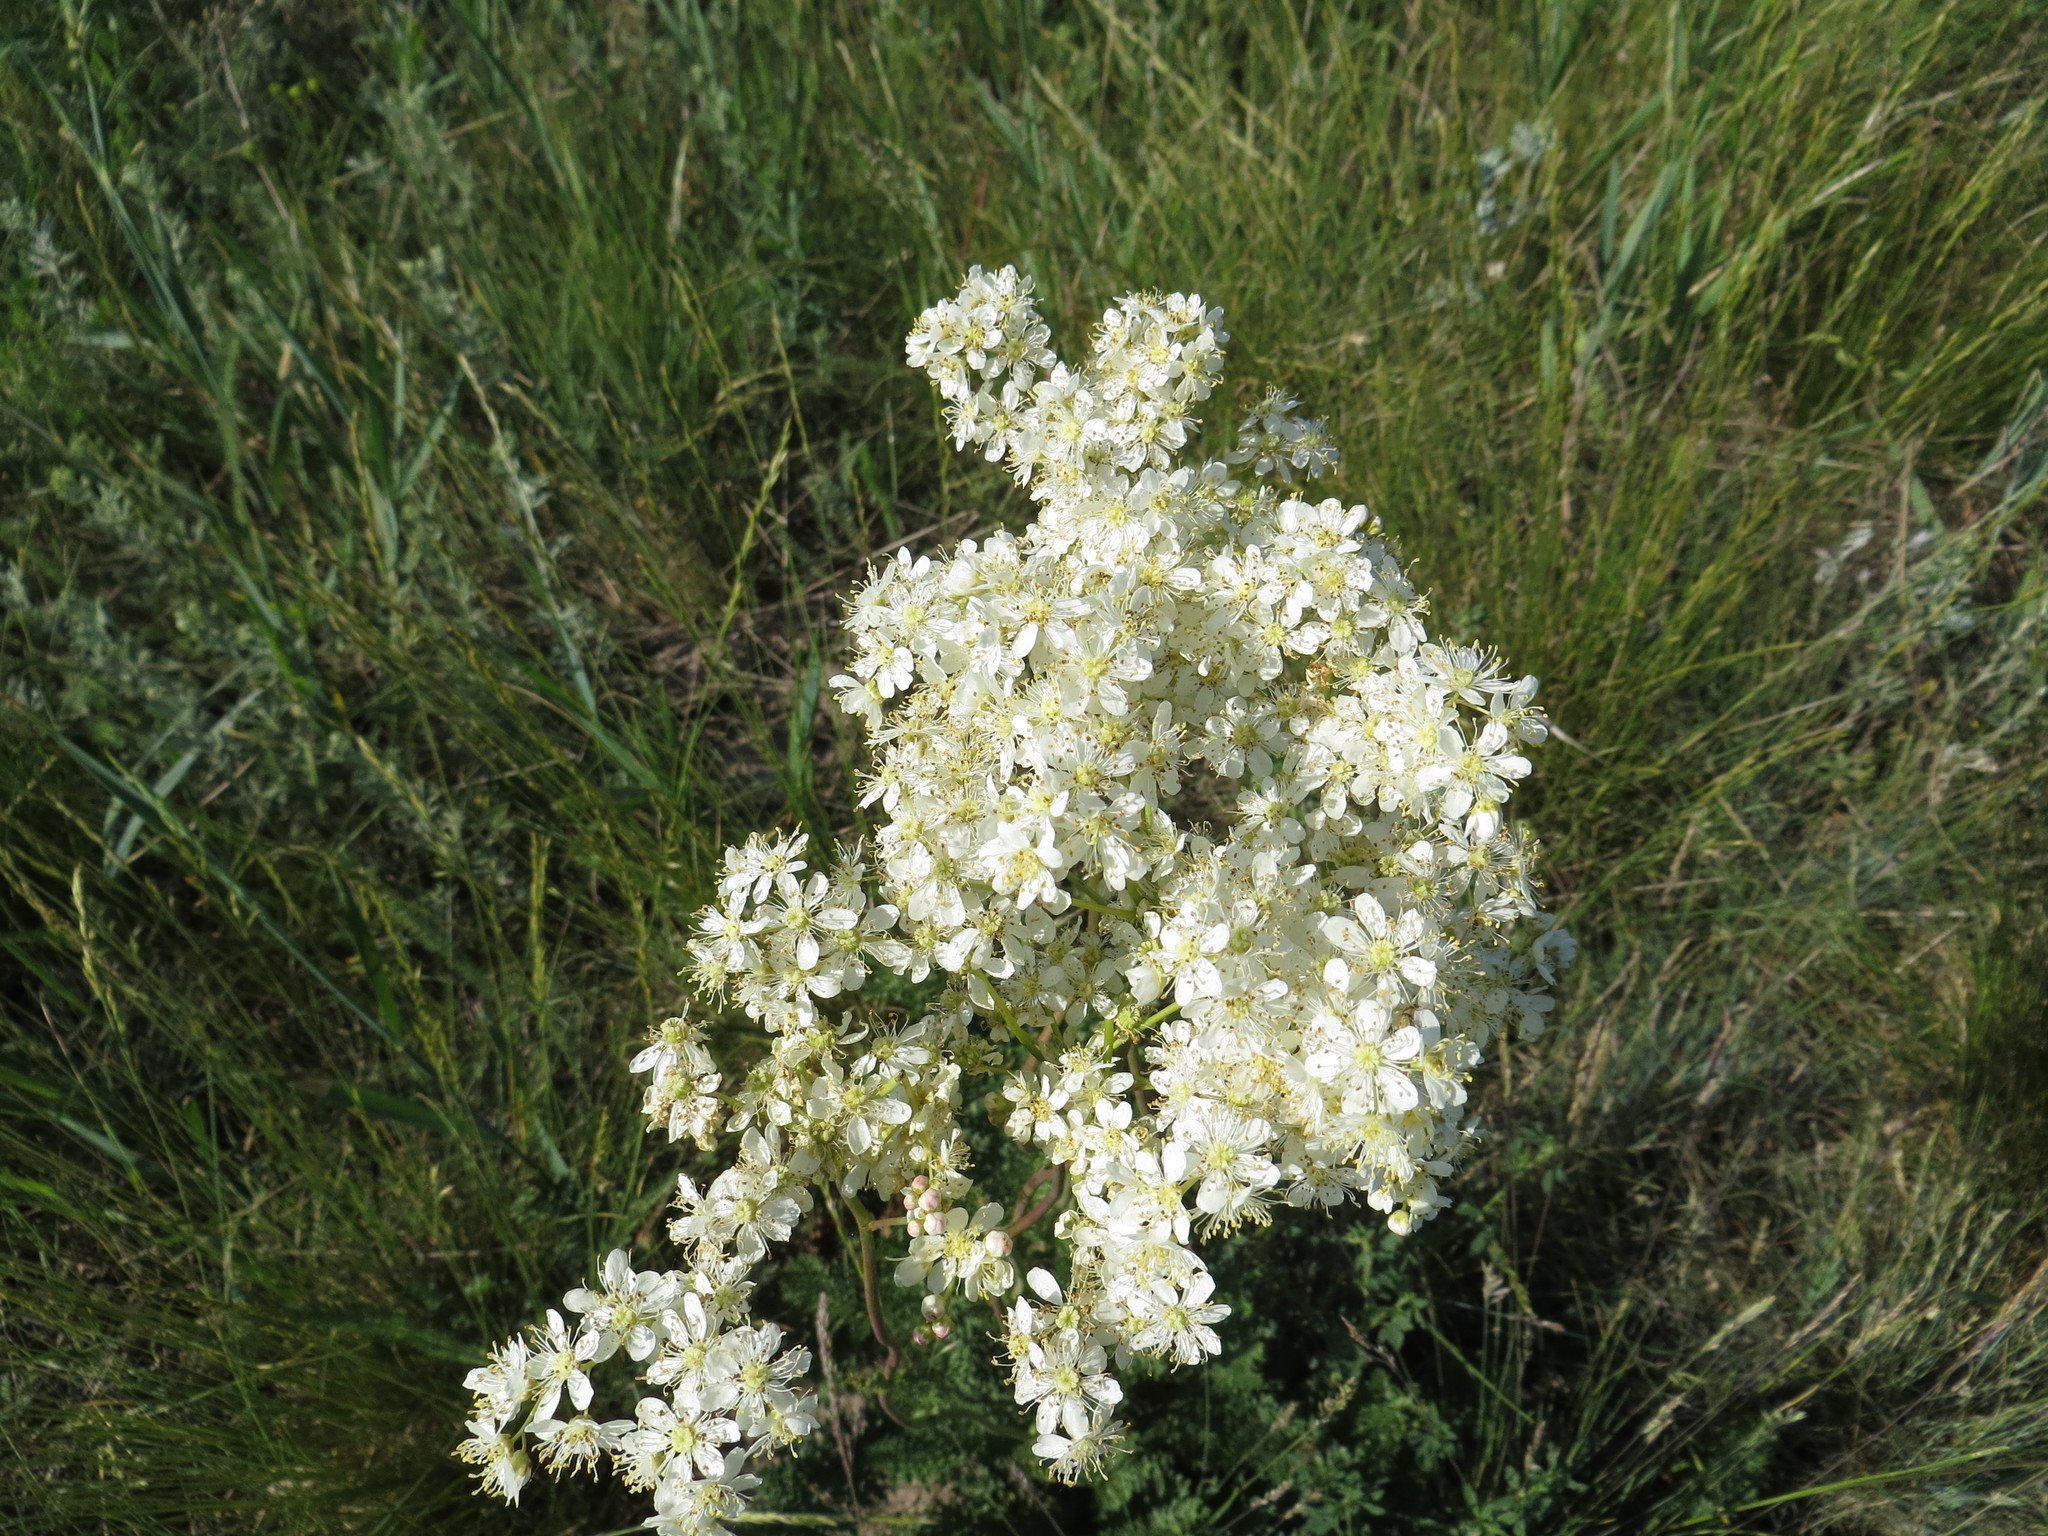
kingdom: Plantae
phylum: Tracheophyta
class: Magnoliopsida
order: Rosales
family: Rosaceae
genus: Filipendula
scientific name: Filipendula vulgaris
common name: Dropwort
